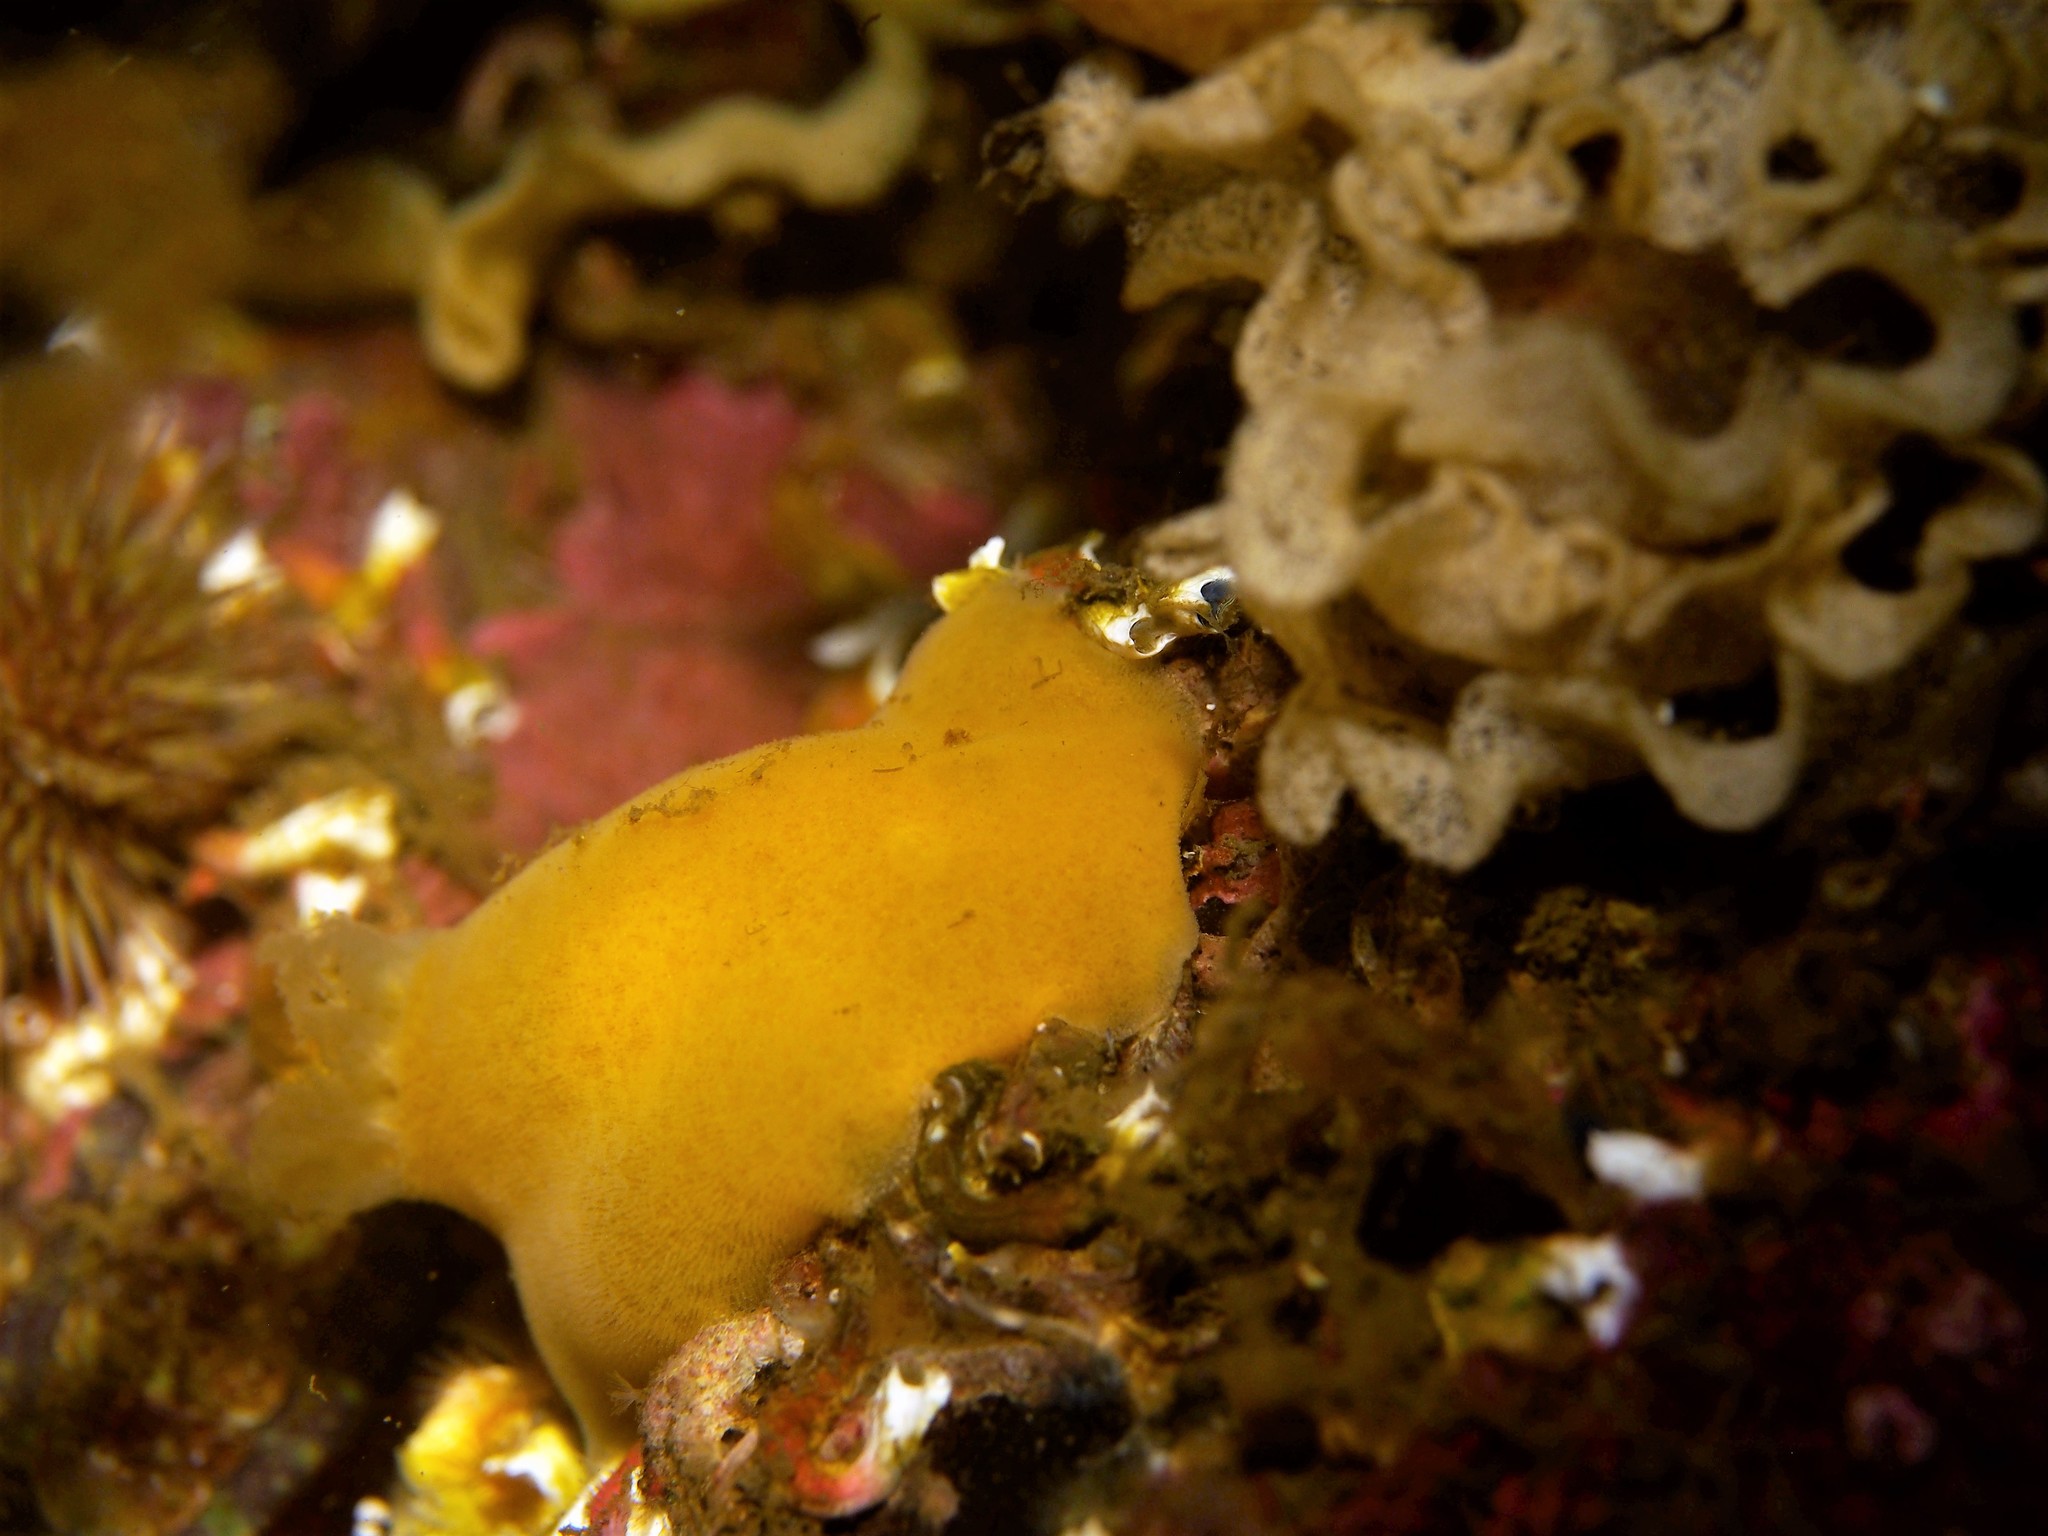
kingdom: Animalia
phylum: Mollusca
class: Gastropoda
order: Nudibranchia
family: Discodorididae
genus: Jorunna
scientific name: Jorunna tomentosa
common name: Grey sea slug
